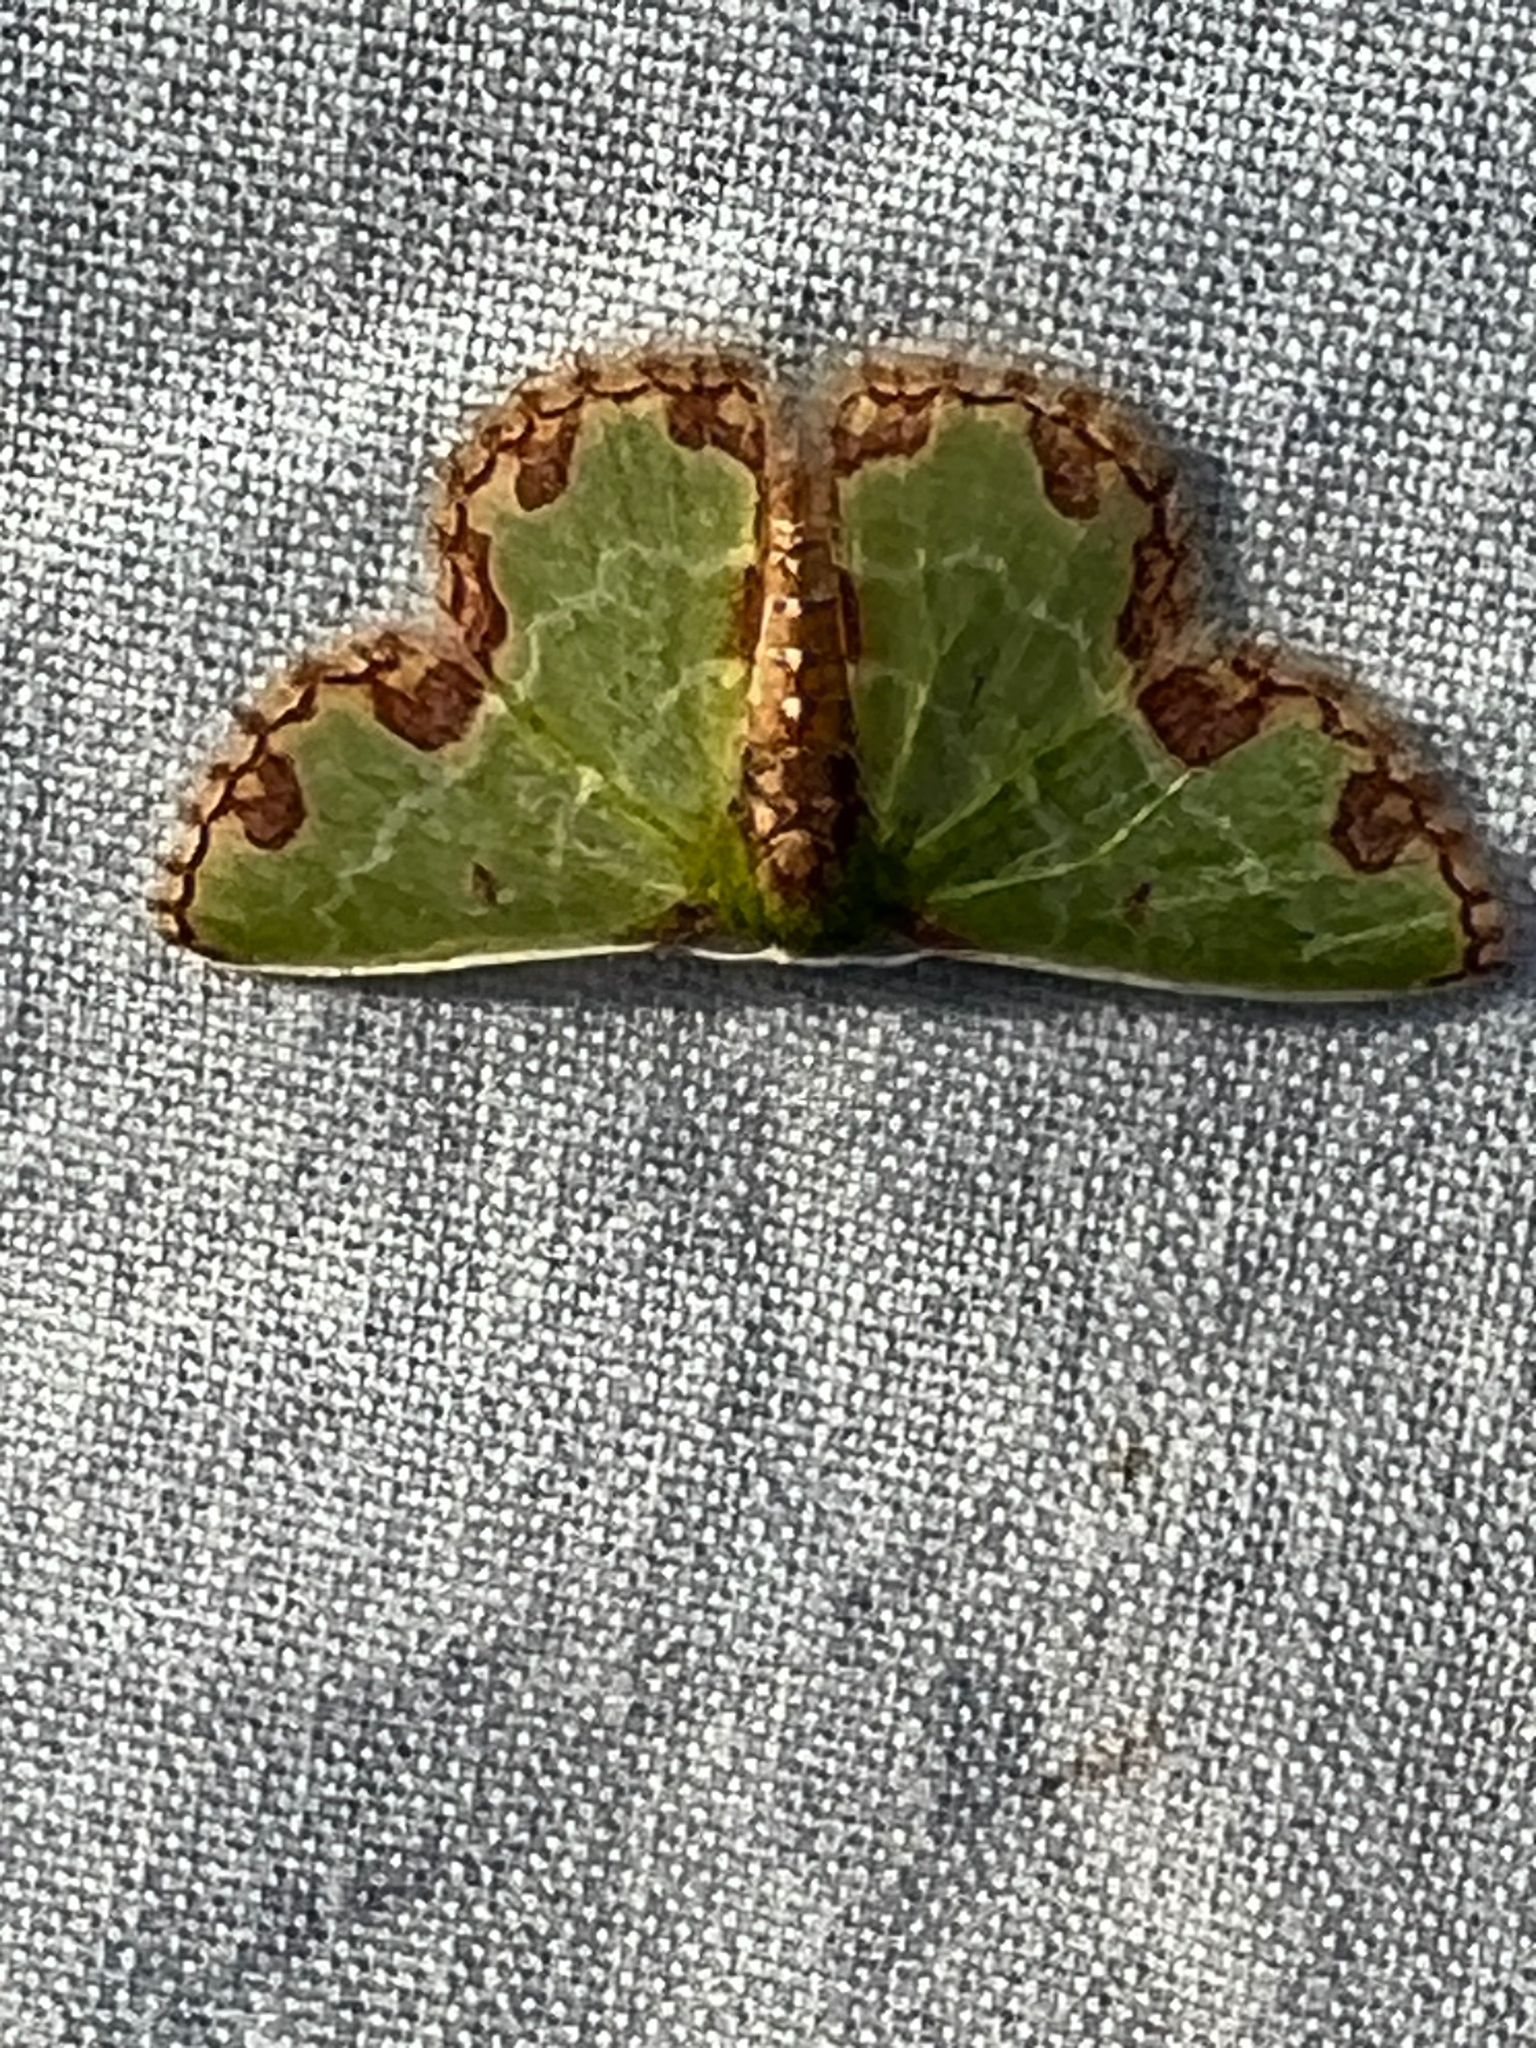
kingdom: Animalia
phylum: Arthropoda
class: Insecta
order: Lepidoptera
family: Geometridae
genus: Synchlora
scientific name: Synchlora gerularia
